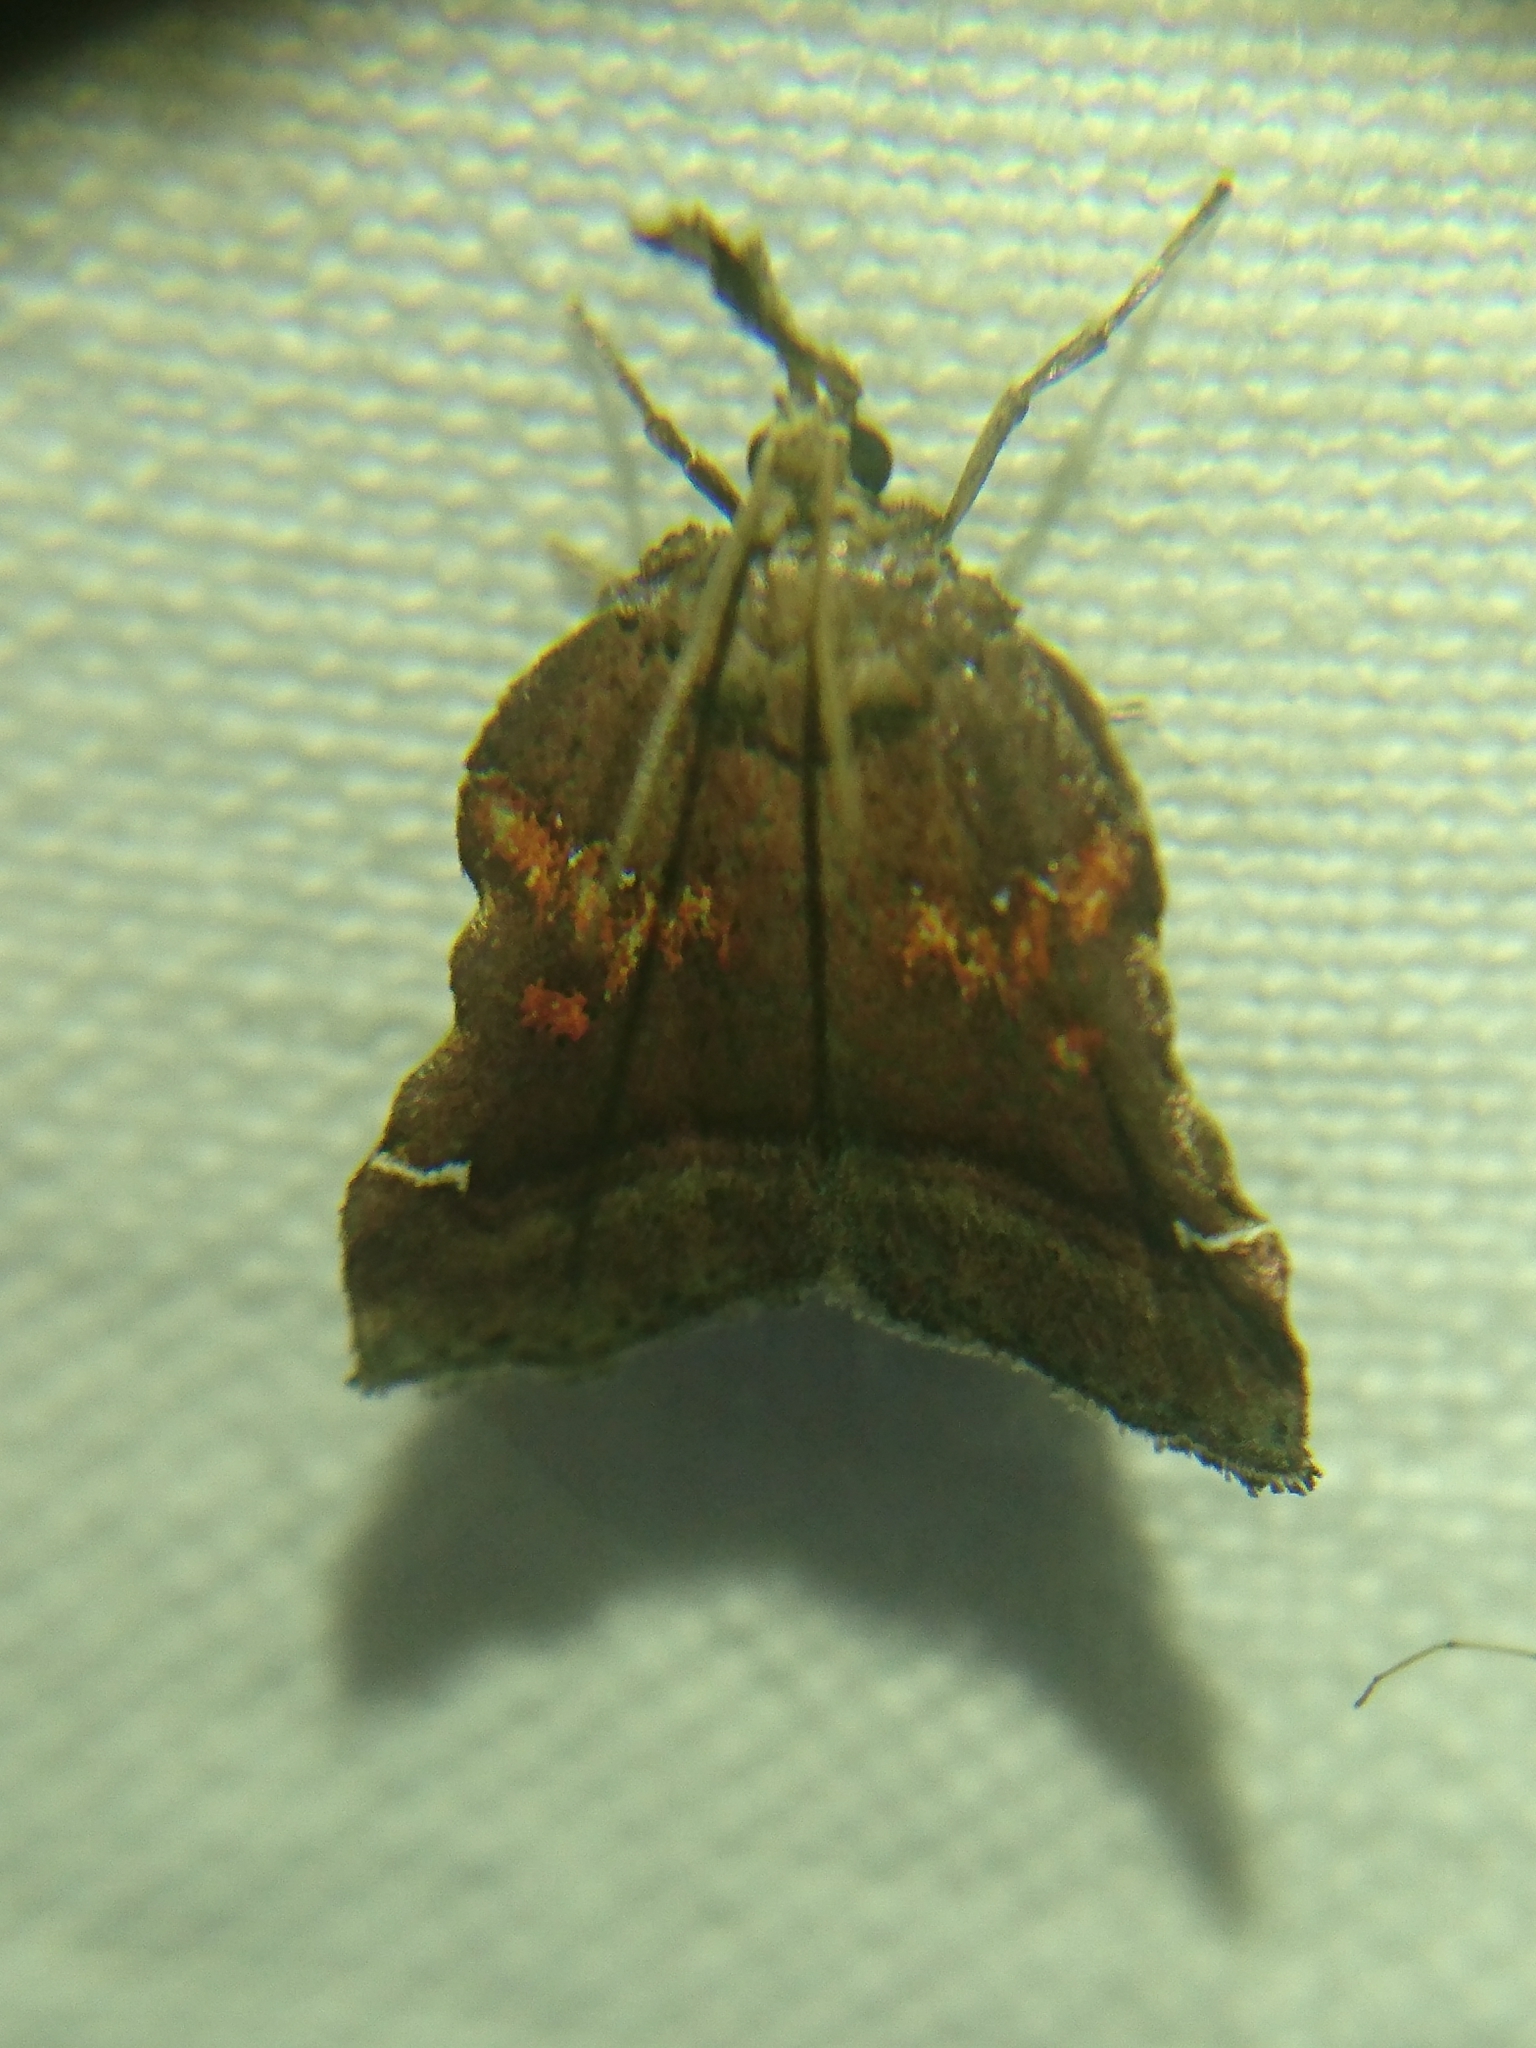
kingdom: Animalia
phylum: Arthropoda
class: Insecta
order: Lepidoptera
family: Pyralidae
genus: Clydonopteron
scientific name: Clydonopteron sacculana
